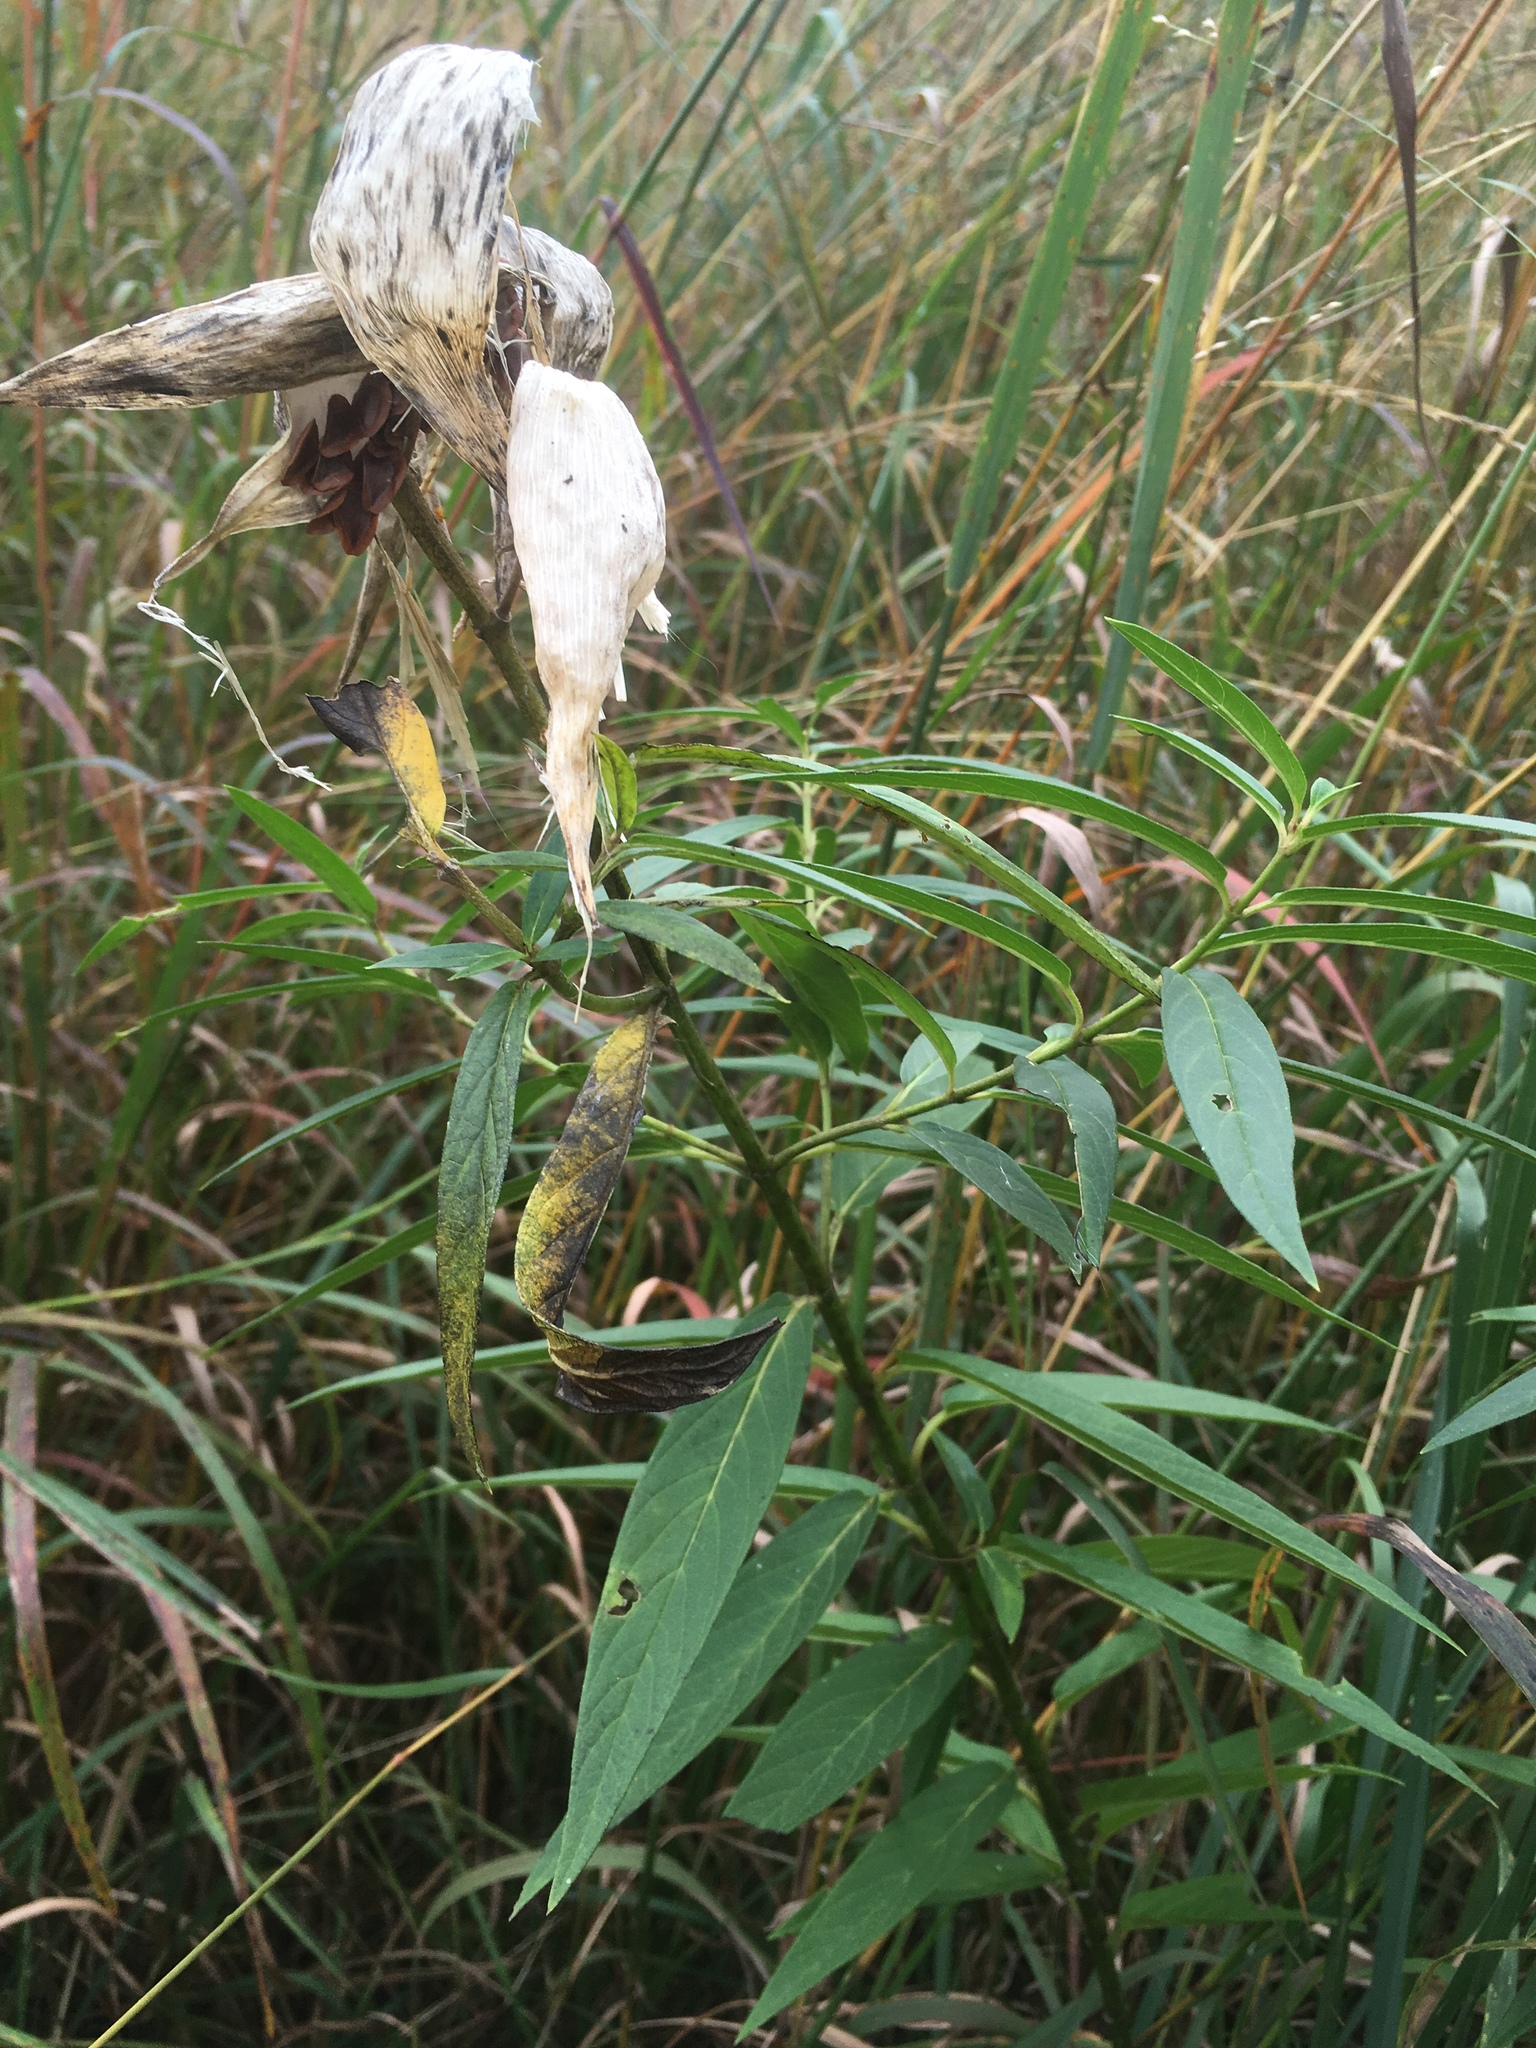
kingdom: Plantae
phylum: Tracheophyta
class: Magnoliopsida
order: Gentianales
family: Apocynaceae
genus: Asclepias
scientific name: Asclepias incarnata
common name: Swamp milkweed
